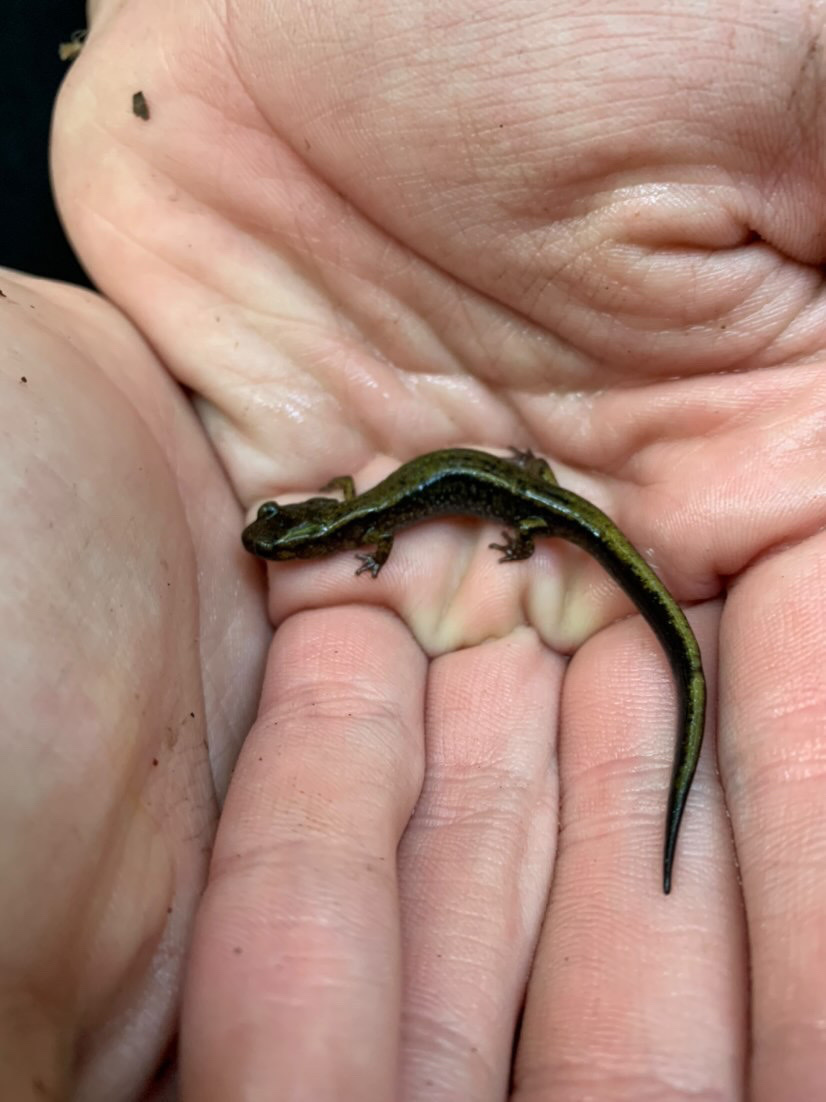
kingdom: Animalia
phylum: Chordata
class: Amphibia
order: Caudata
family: Plethodontidae
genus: Plethodon
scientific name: Plethodon dunni
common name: Dunn's salamander
